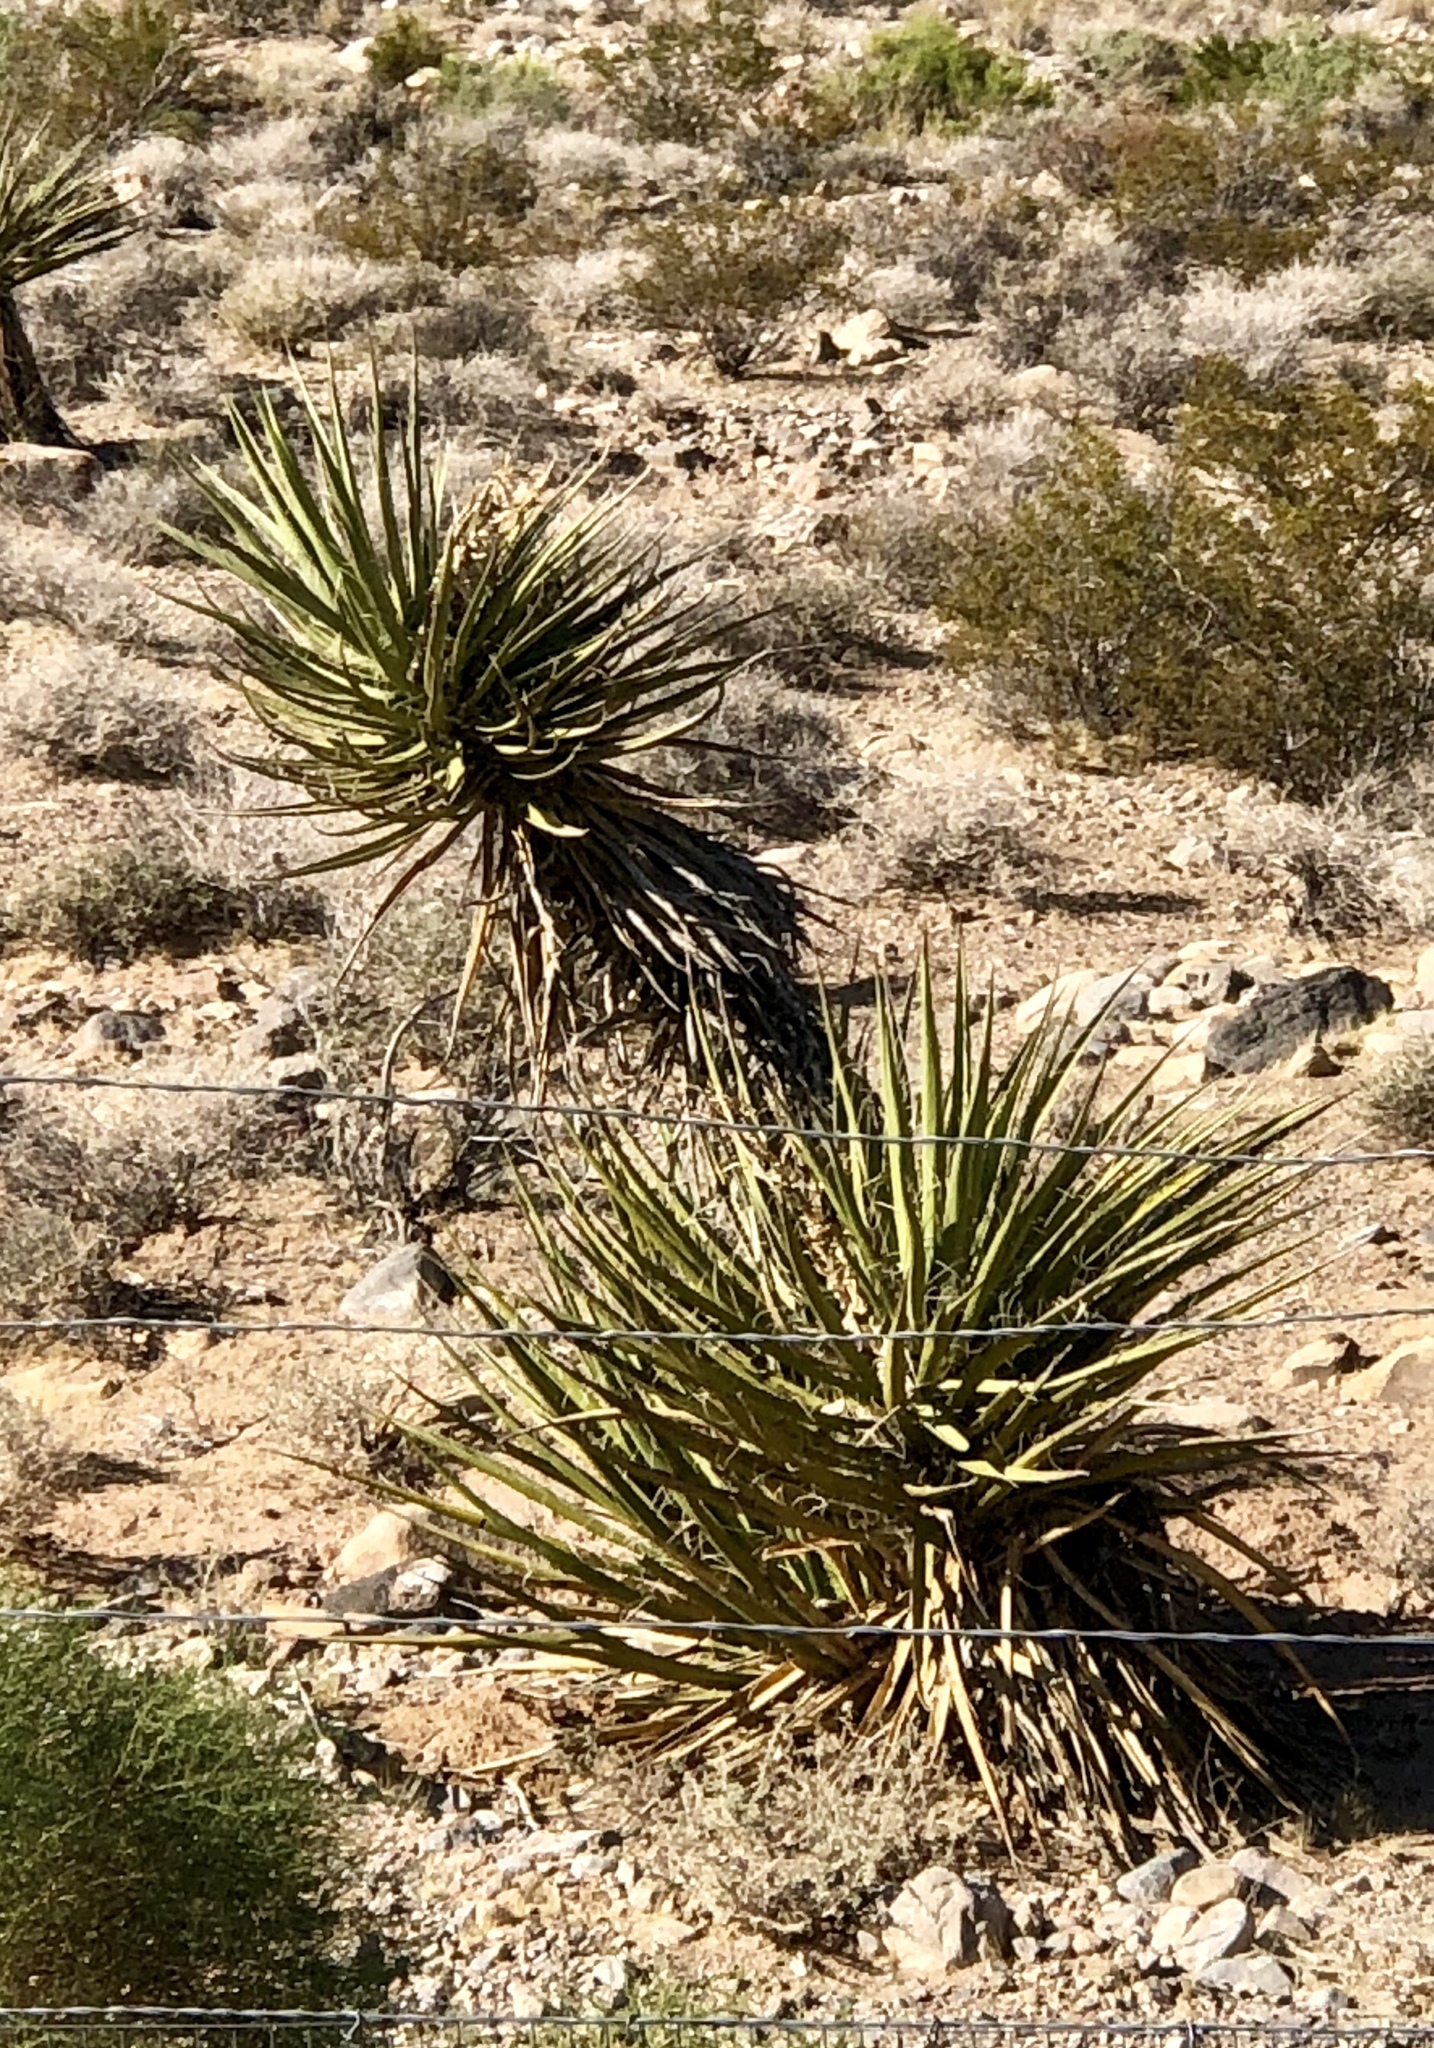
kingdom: Plantae
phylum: Tracheophyta
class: Liliopsida
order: Asparagales
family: Asparagaceae
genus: Yucca
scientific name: Yucca schidigera
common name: Mojave yucca
